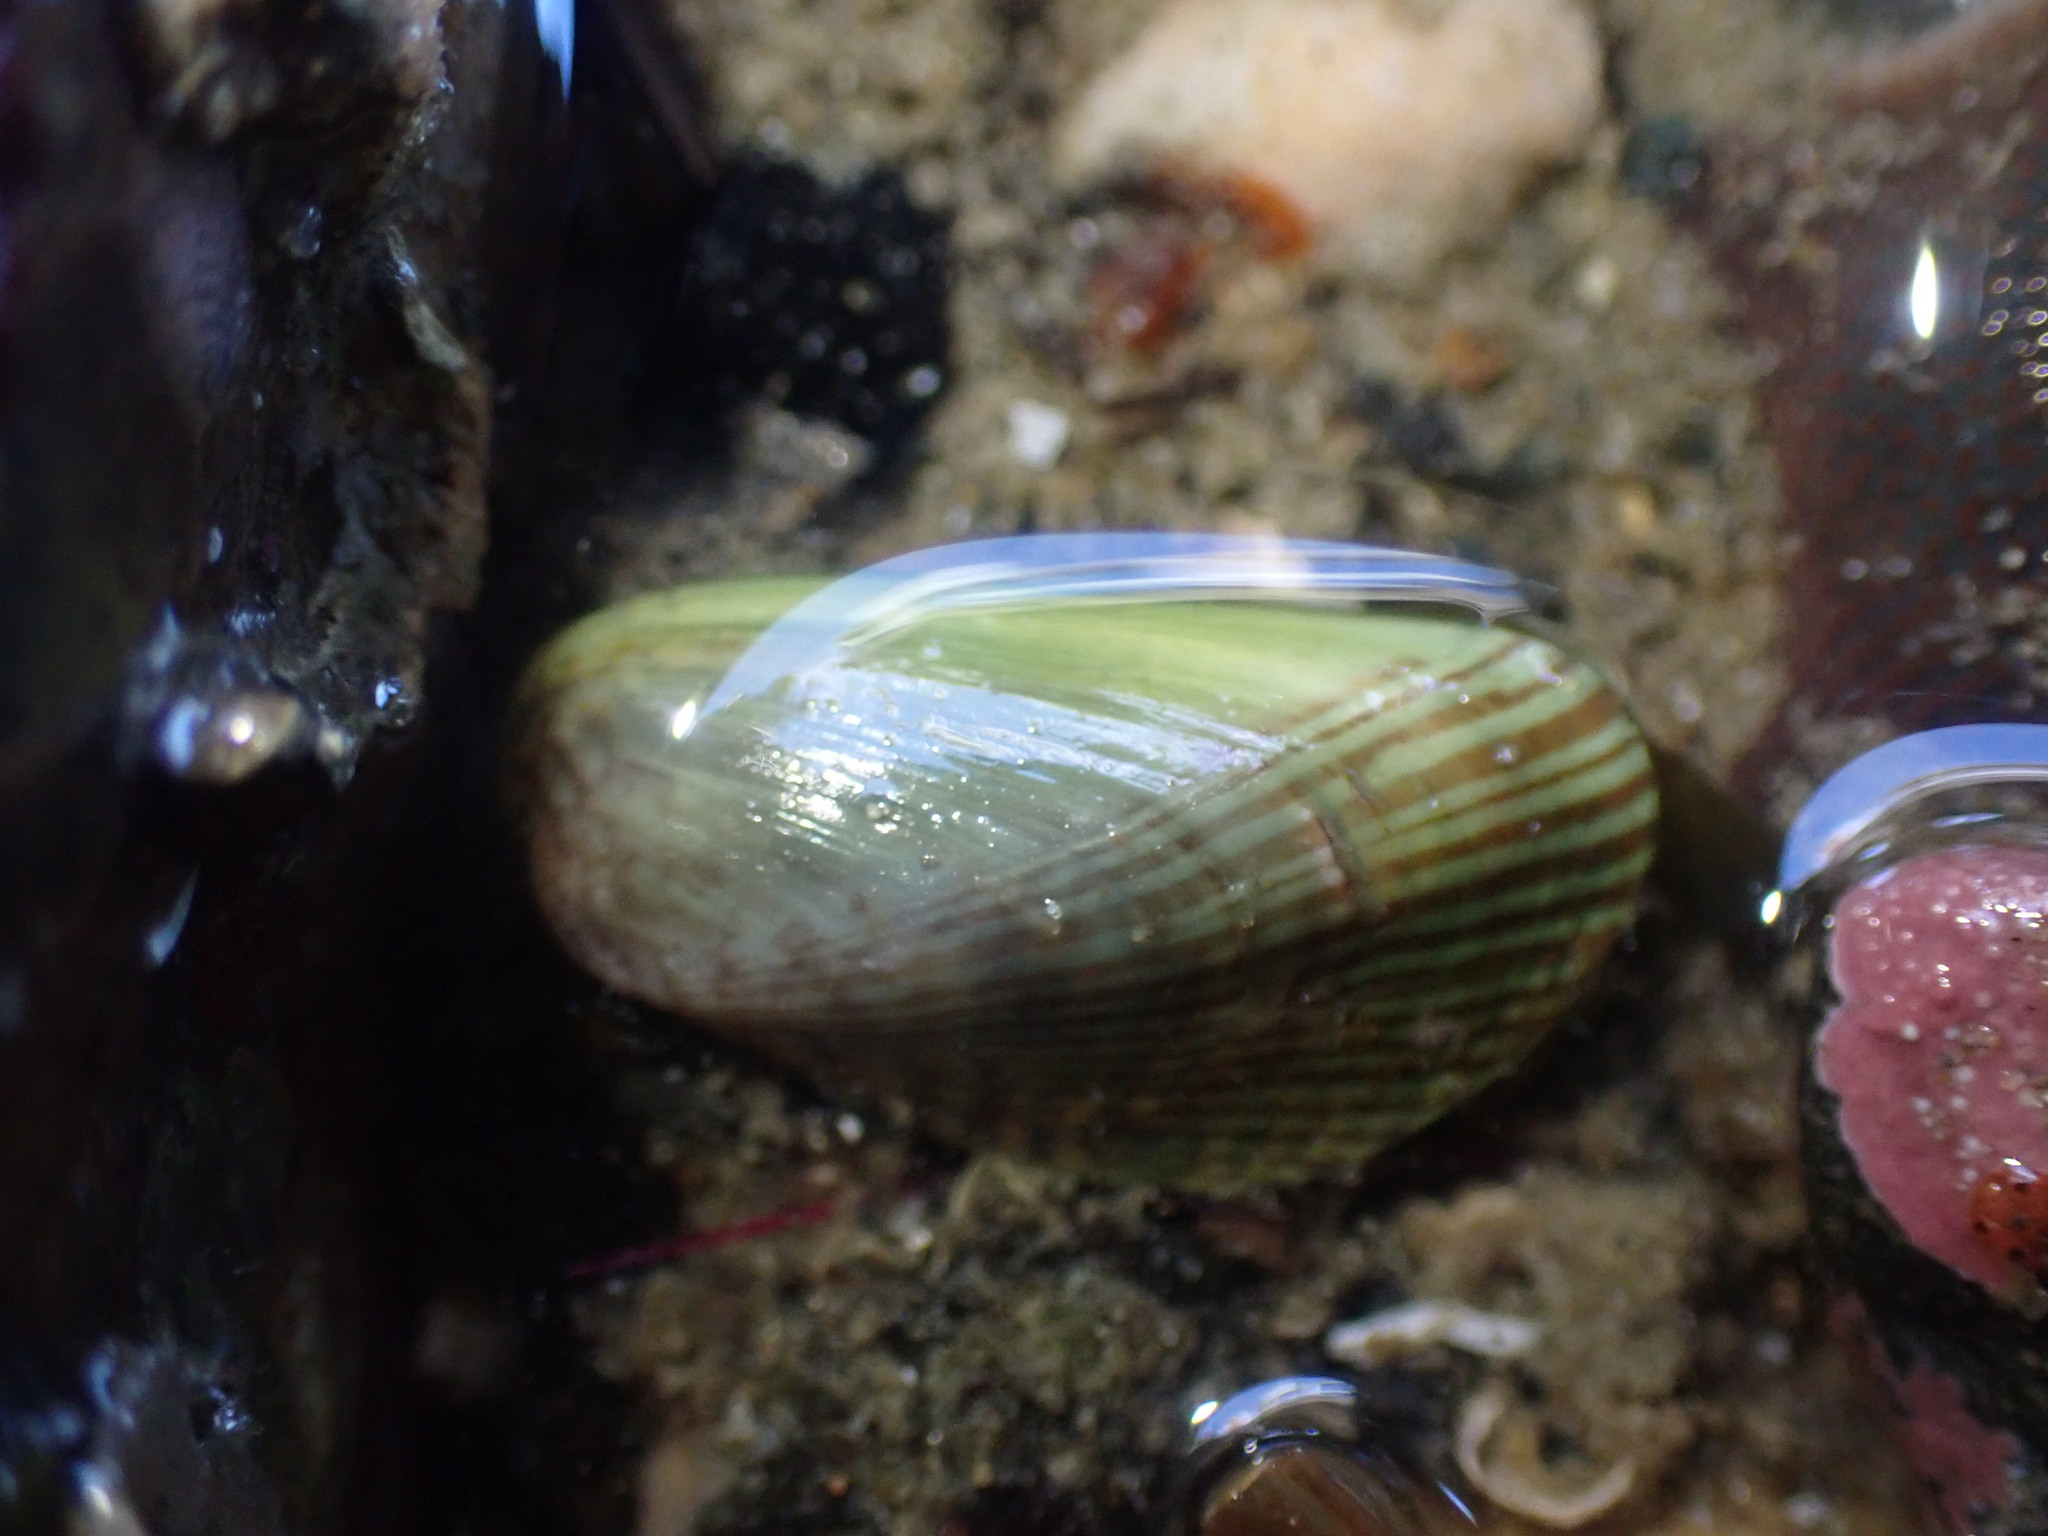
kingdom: Animalia
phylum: Mollusca
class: Bivalvia
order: Mytilida
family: Mytilidae
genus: Arcuatula
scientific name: Arcuatula senhousia
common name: Asian mussel
